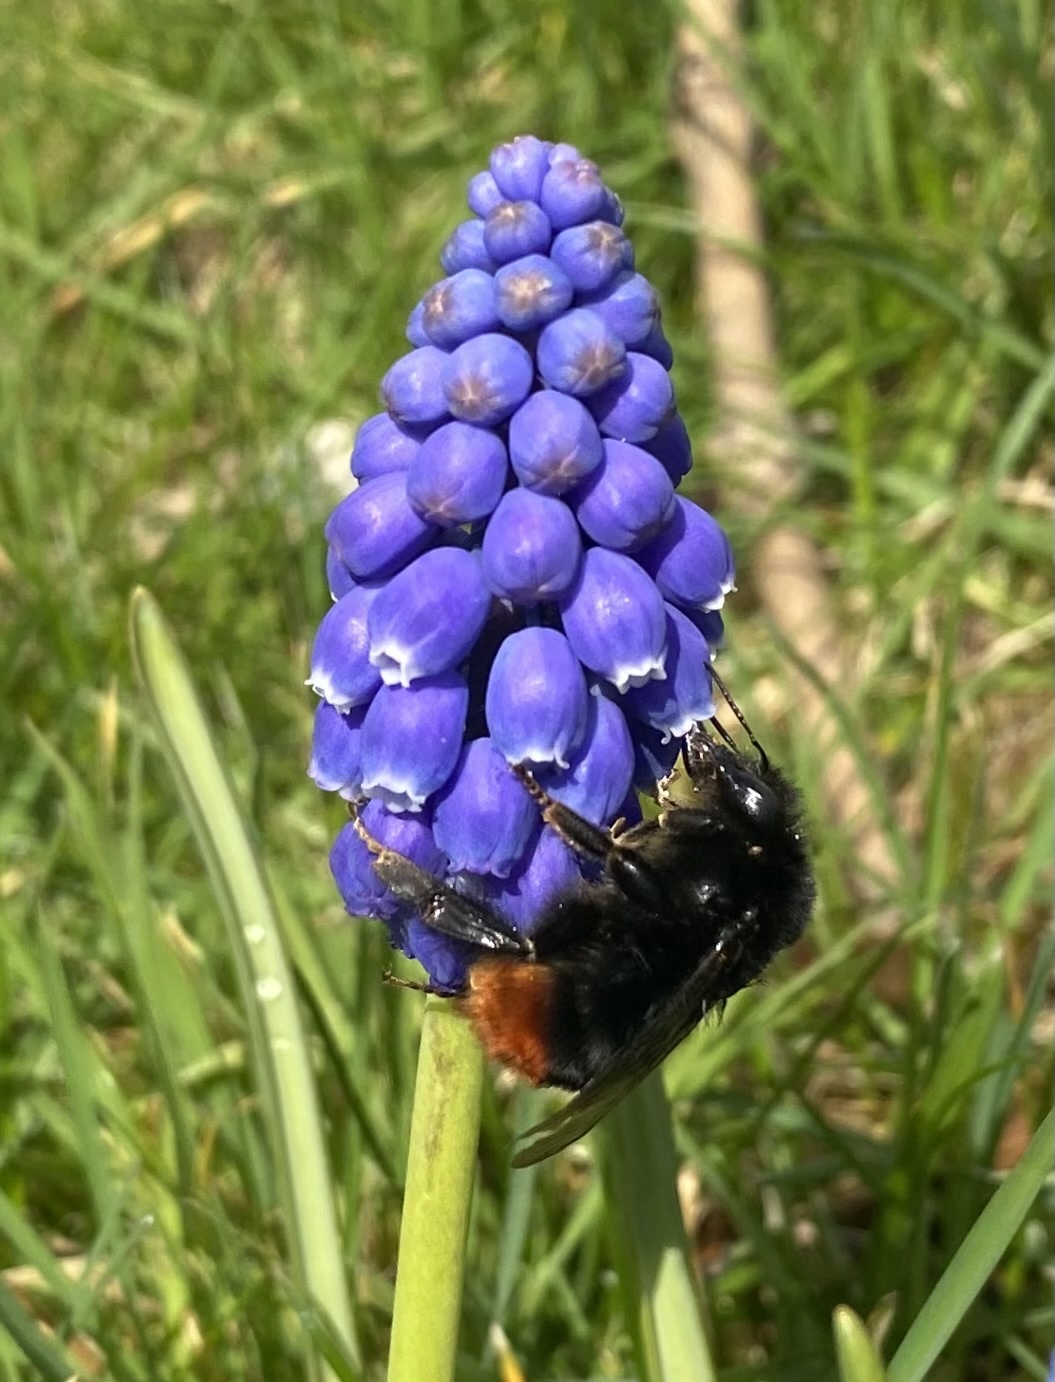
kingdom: Animalia
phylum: Arthropoda
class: Insecta
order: Hymenoptera
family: Apidae
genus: Bombus
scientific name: Bombus lapidarius
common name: Large red-tailed humble-bee
